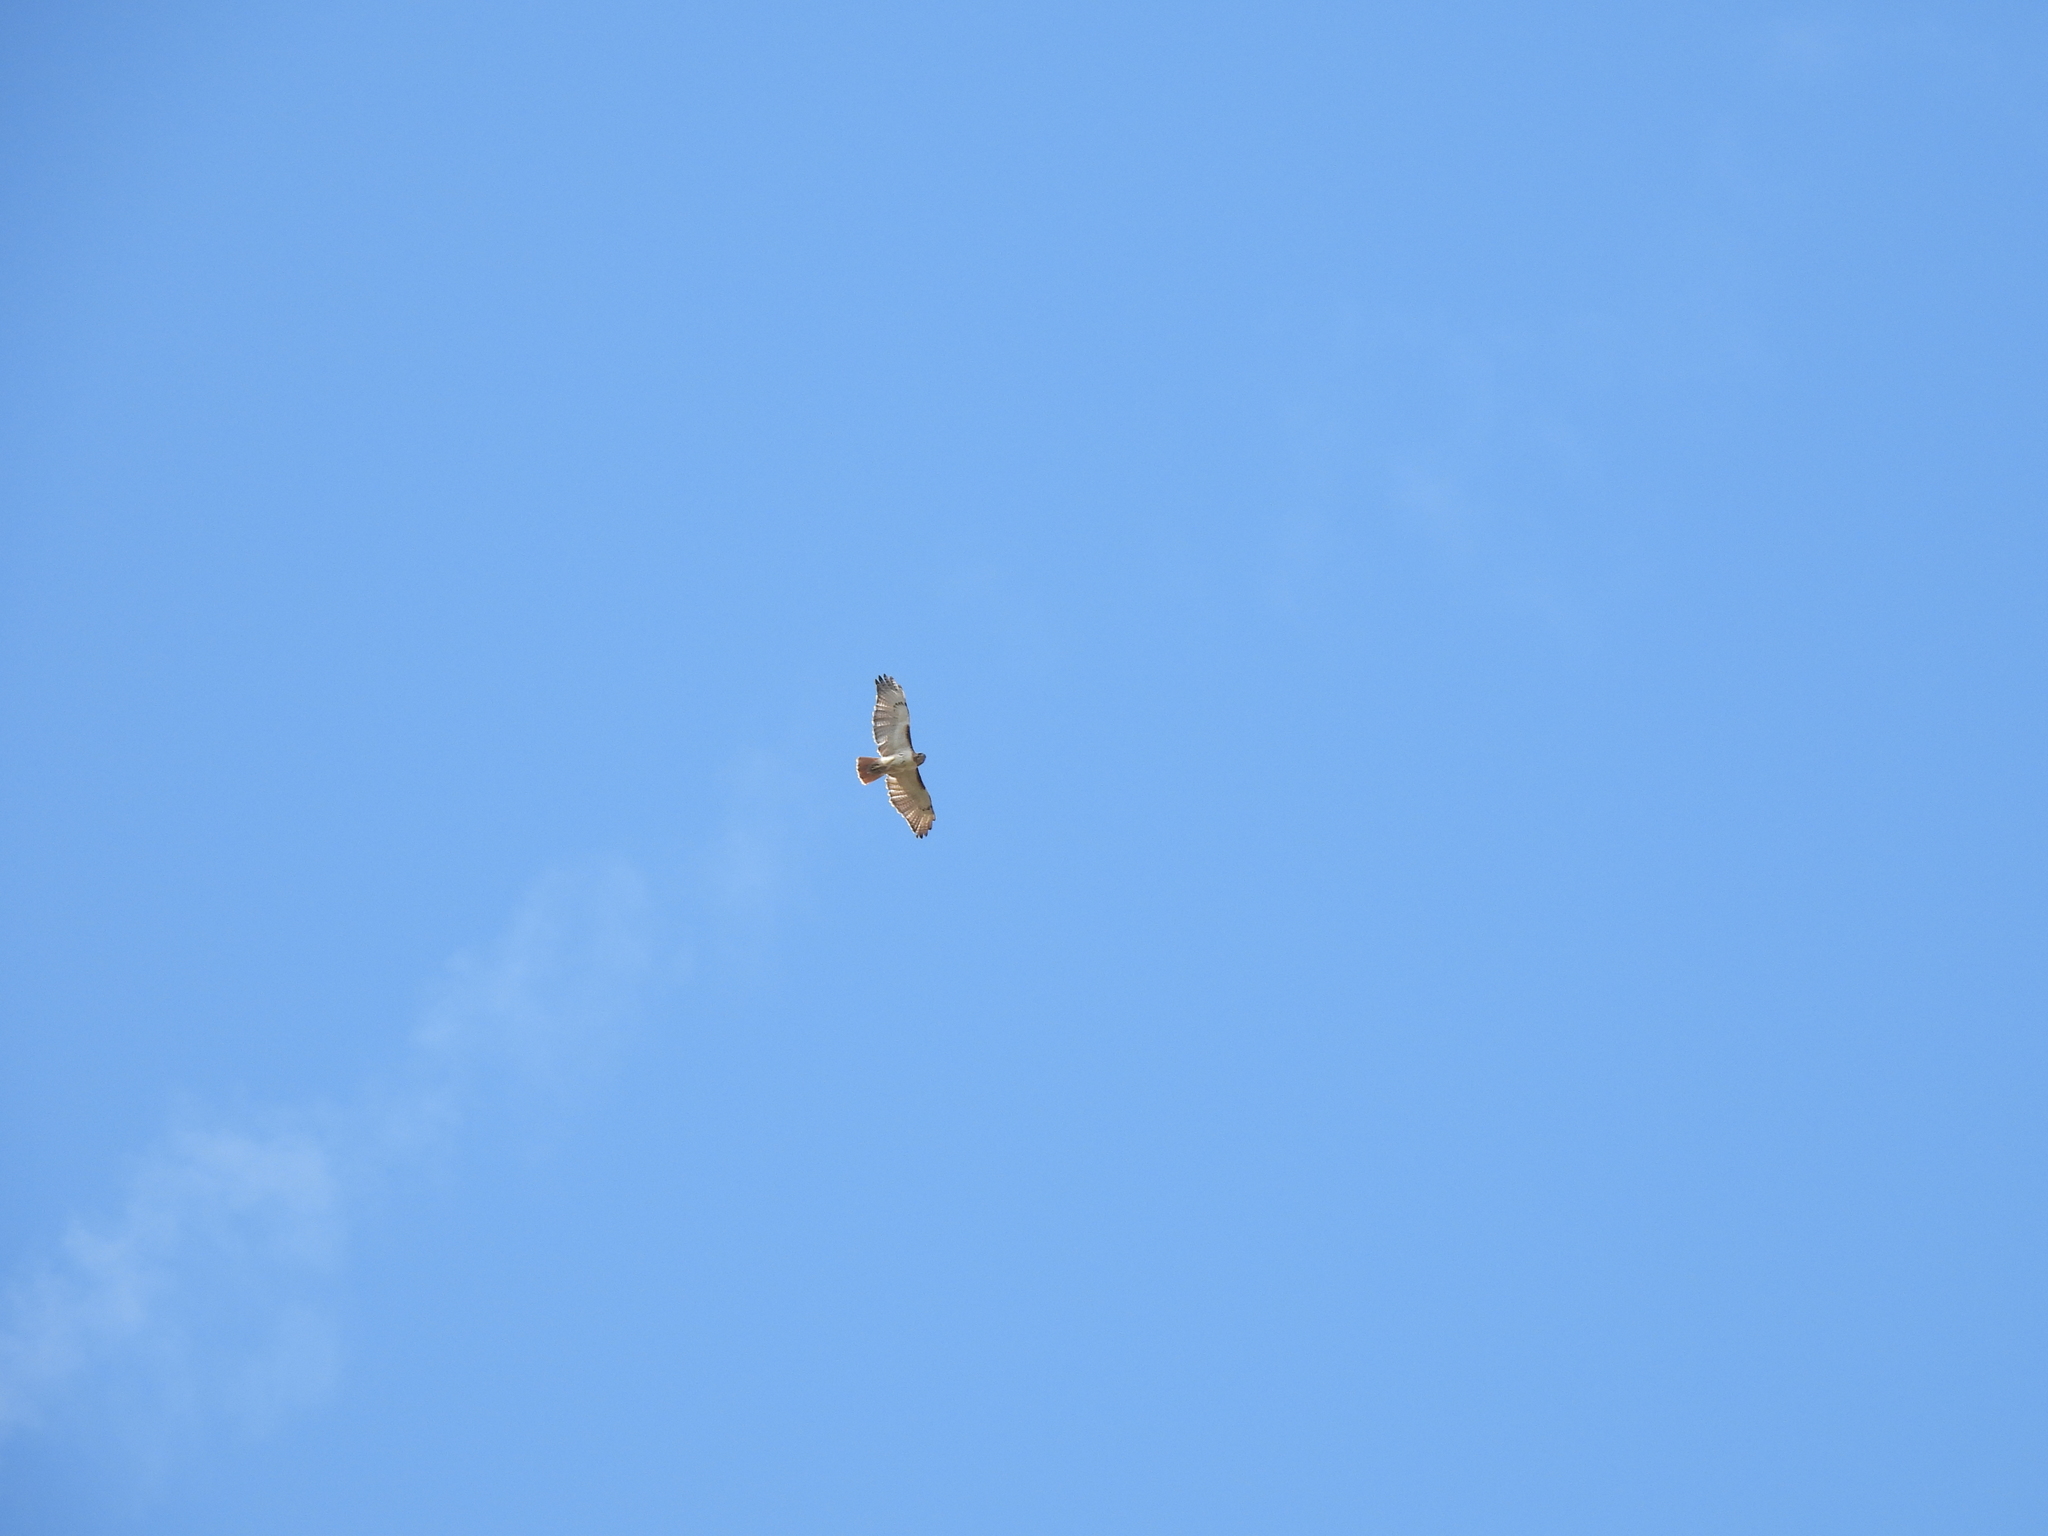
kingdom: Animalia
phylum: Chordata
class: Aves
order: Accipitriformes
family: Accipitridae
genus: Buteo
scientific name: Buteo jamaicensis
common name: Red-tailed hawk
